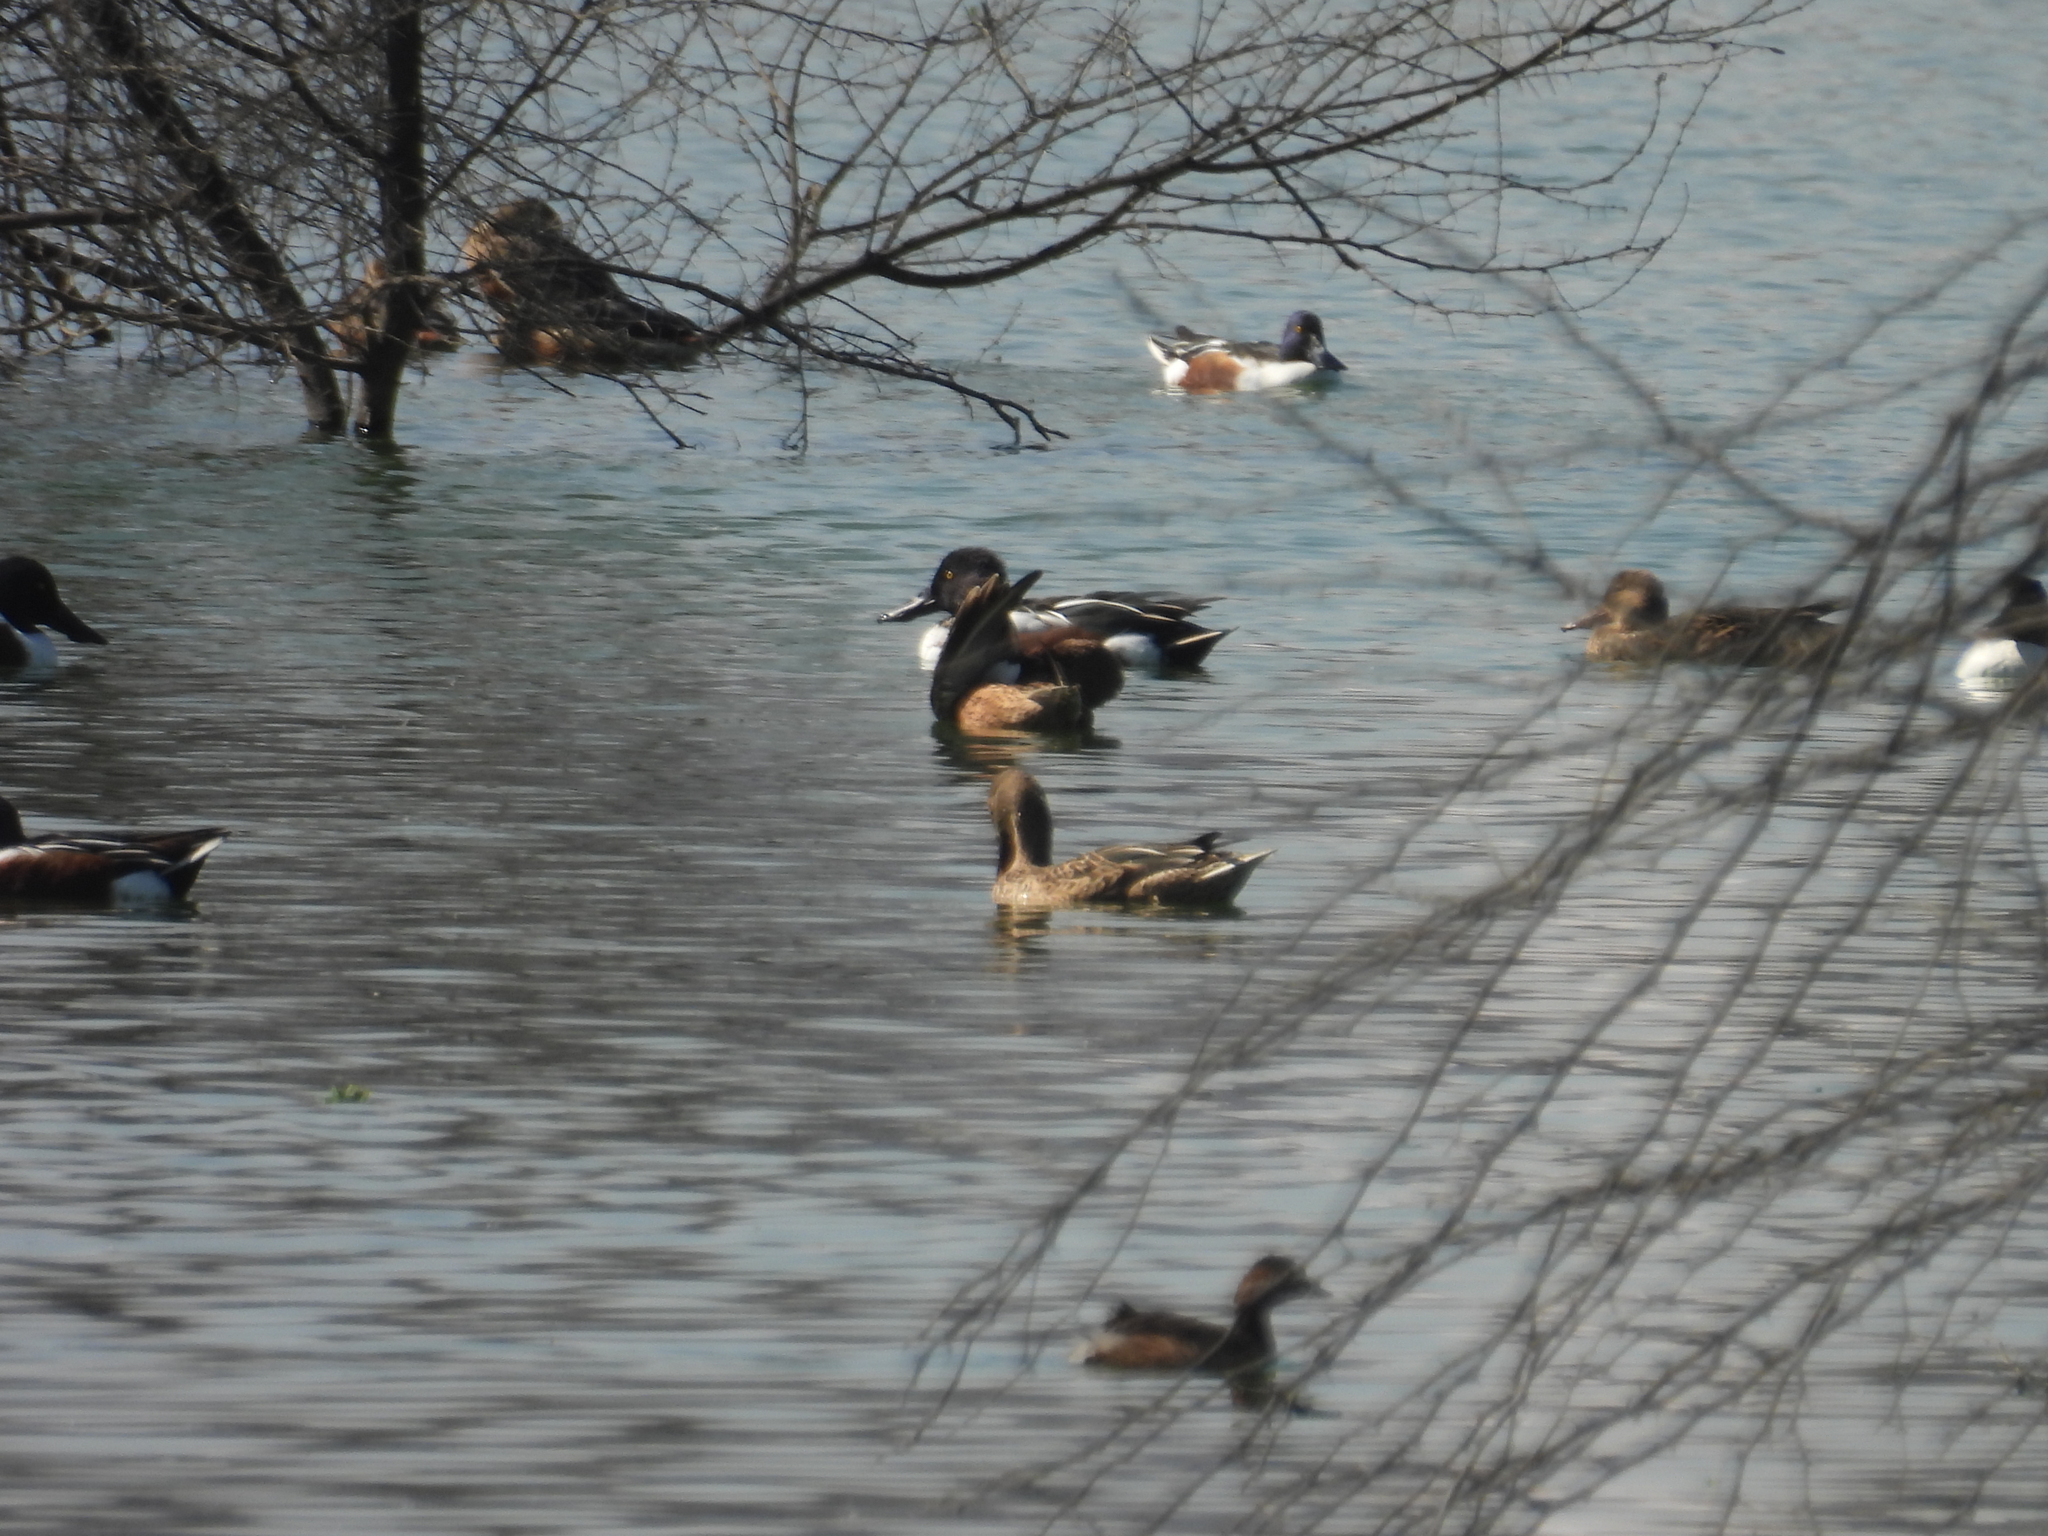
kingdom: Animalia
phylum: Chordata
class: Aves
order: Anseriformes
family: Anatidae
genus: Spatula
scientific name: Spatula clypeata
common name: Northern shoveler
